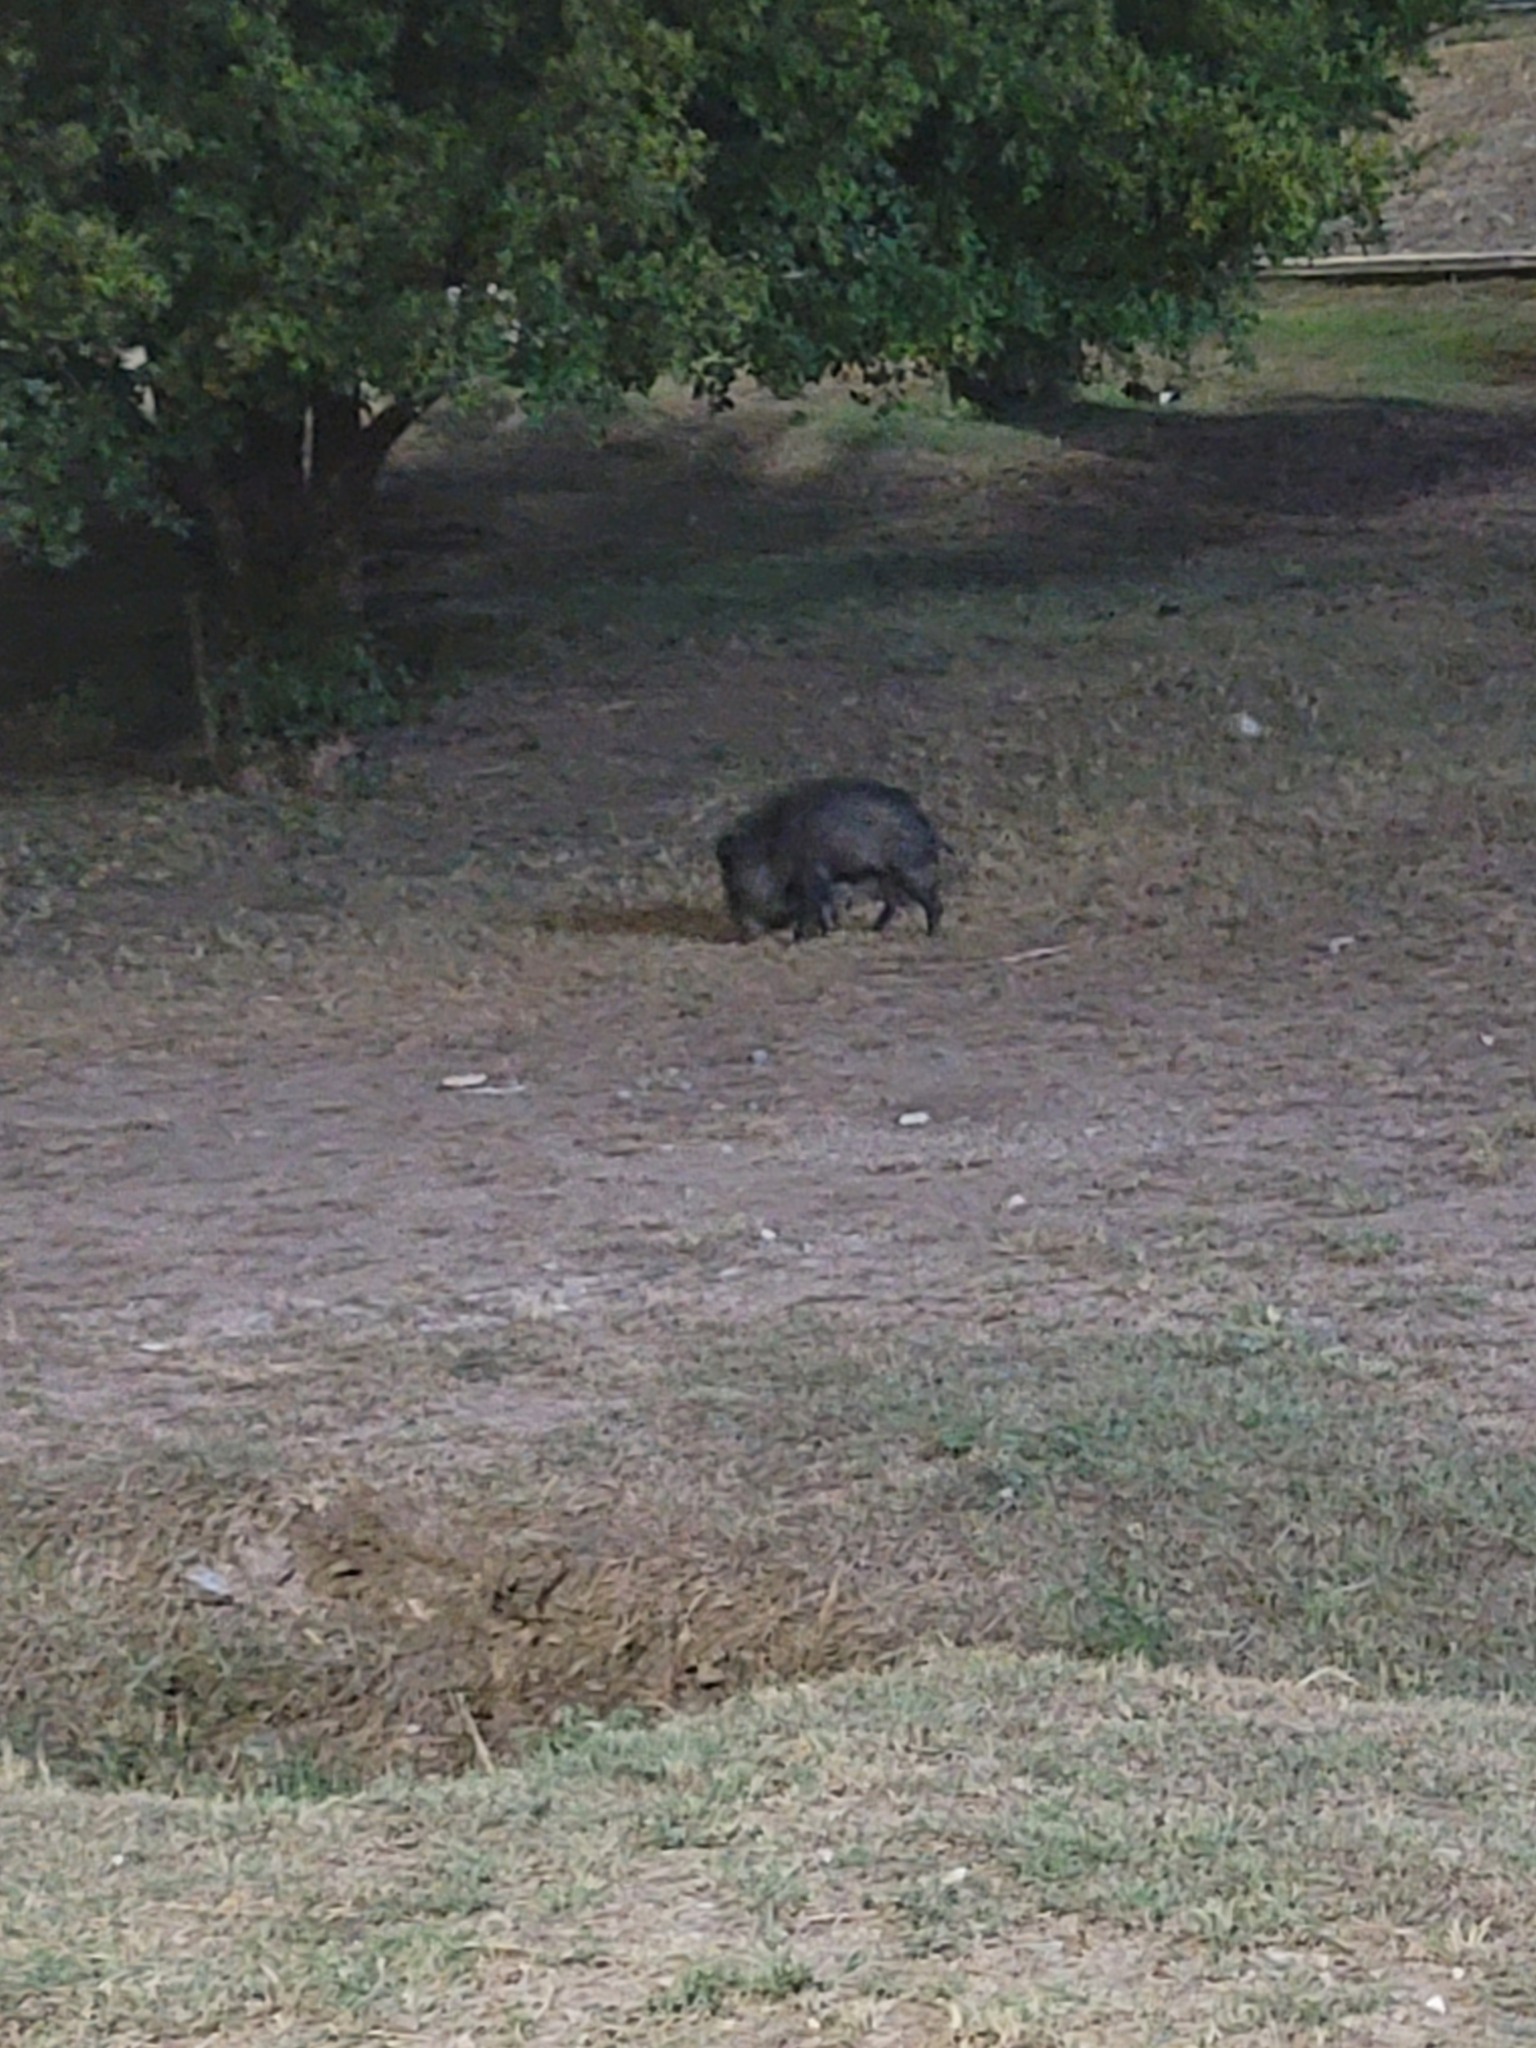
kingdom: Animalia
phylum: Chordata
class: Mammalia
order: Artiodactyla
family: Tayassuidae
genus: Pecari
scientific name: Pecari tajacu
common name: Collared peccary
